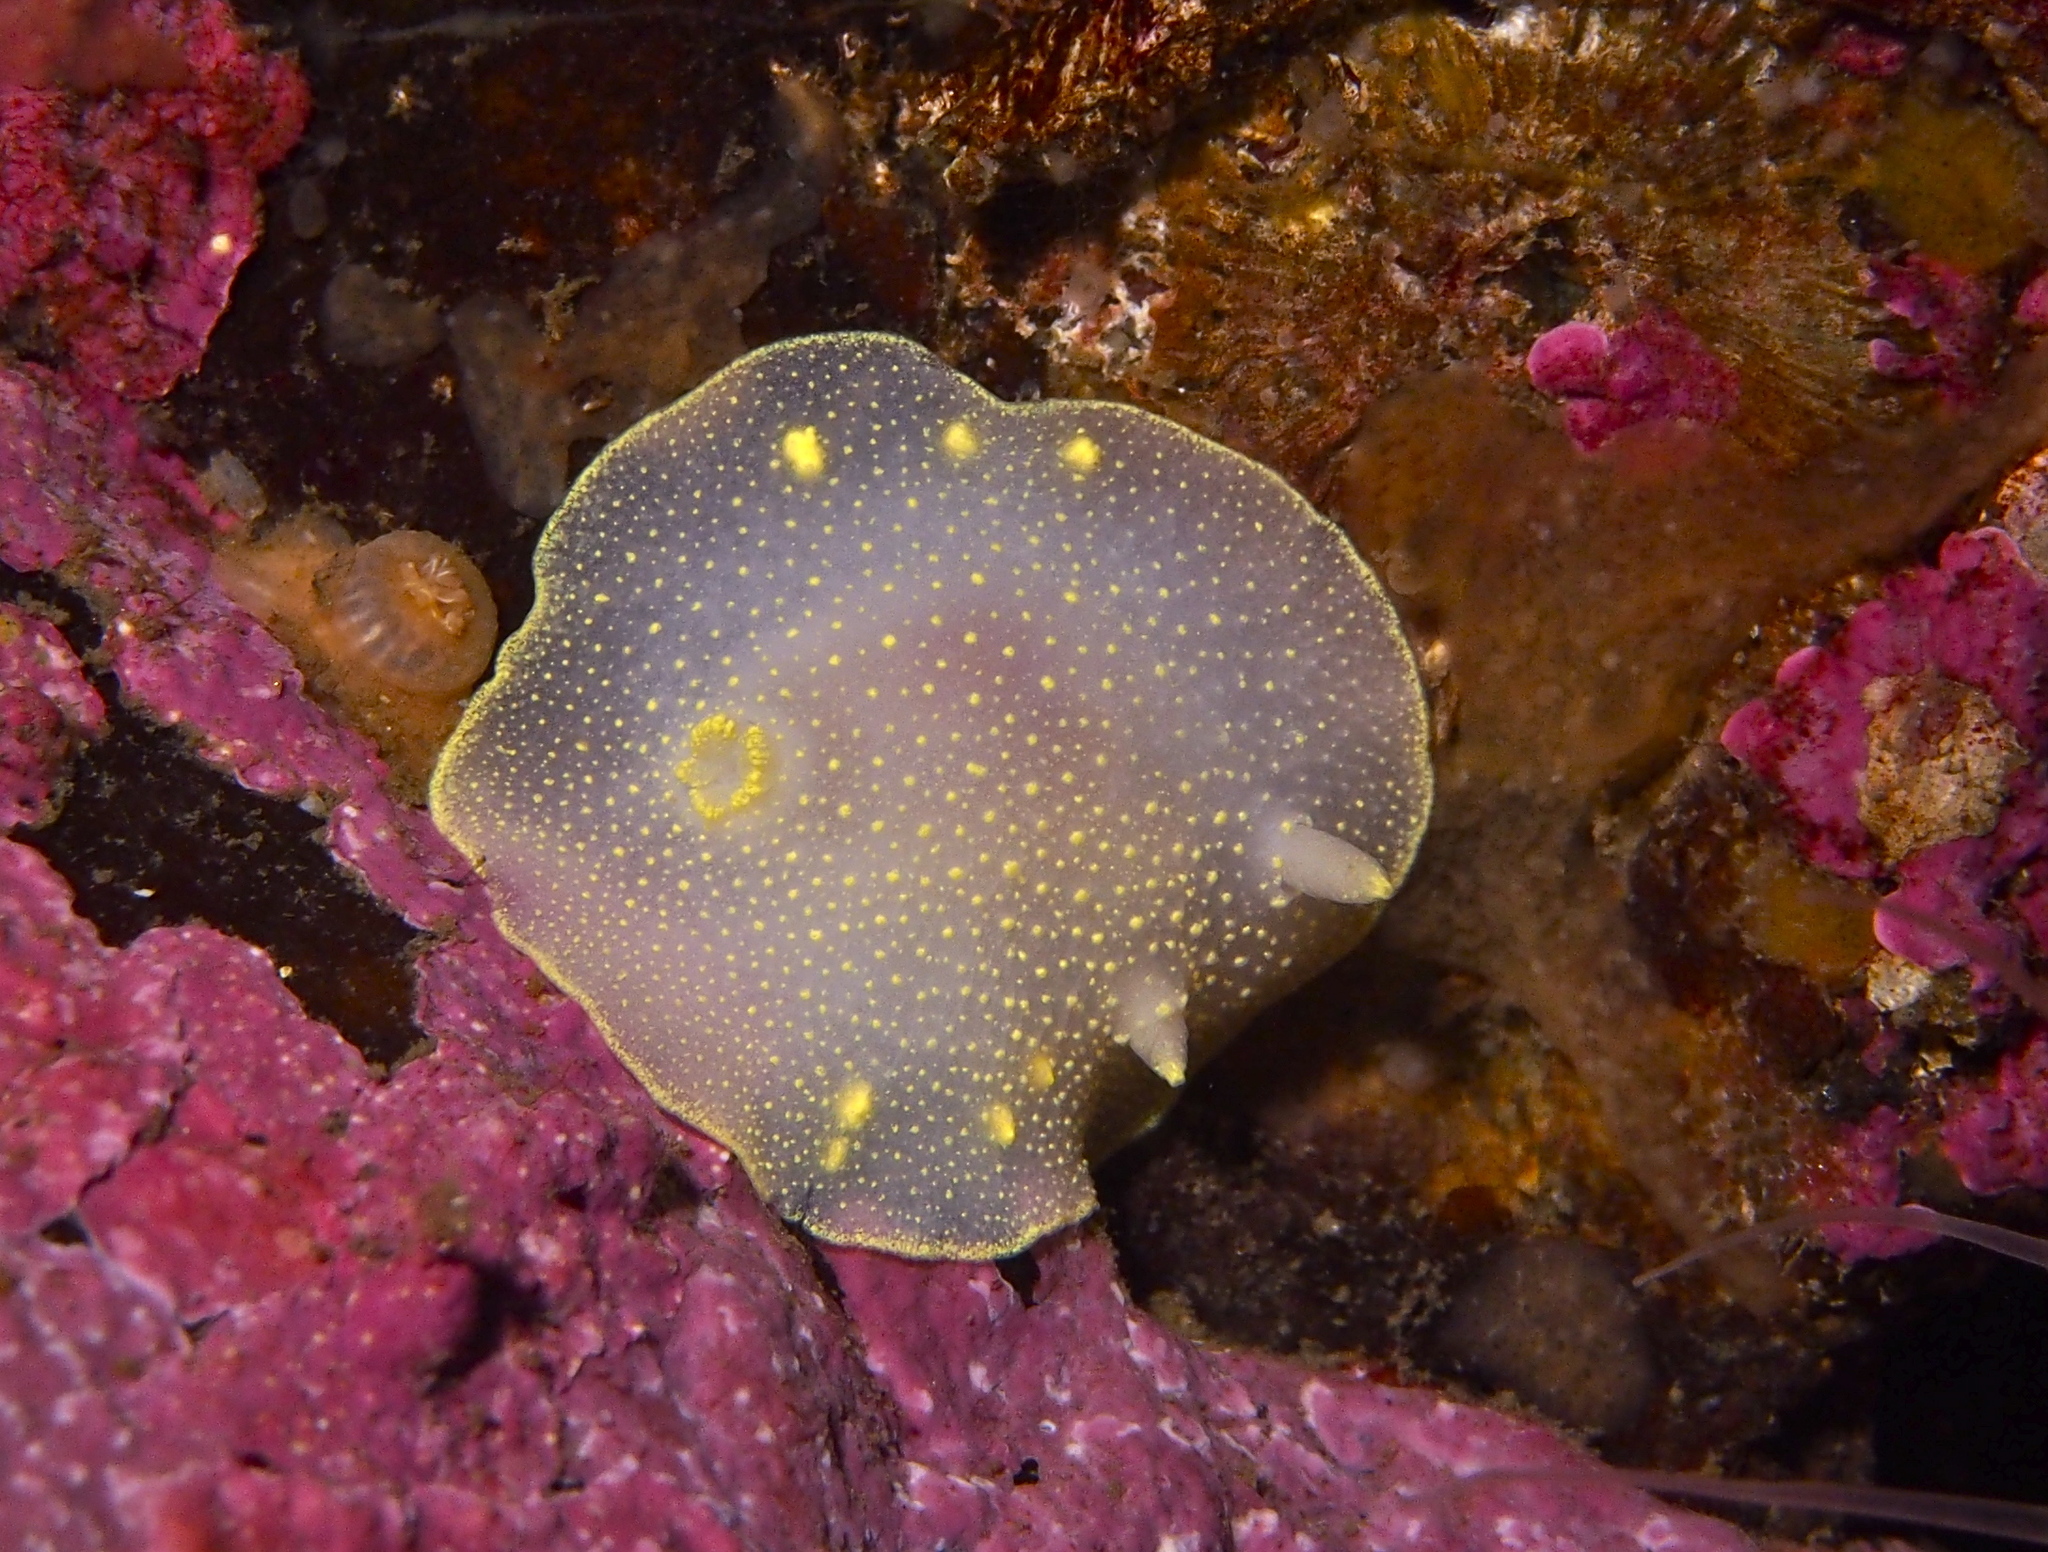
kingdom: Animalia
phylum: Mollusca
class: Gastropoda
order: Nudibranchia
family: Cadlinidae
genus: Cadlina
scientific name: Cadlina laevis
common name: White atlantic cadlina
